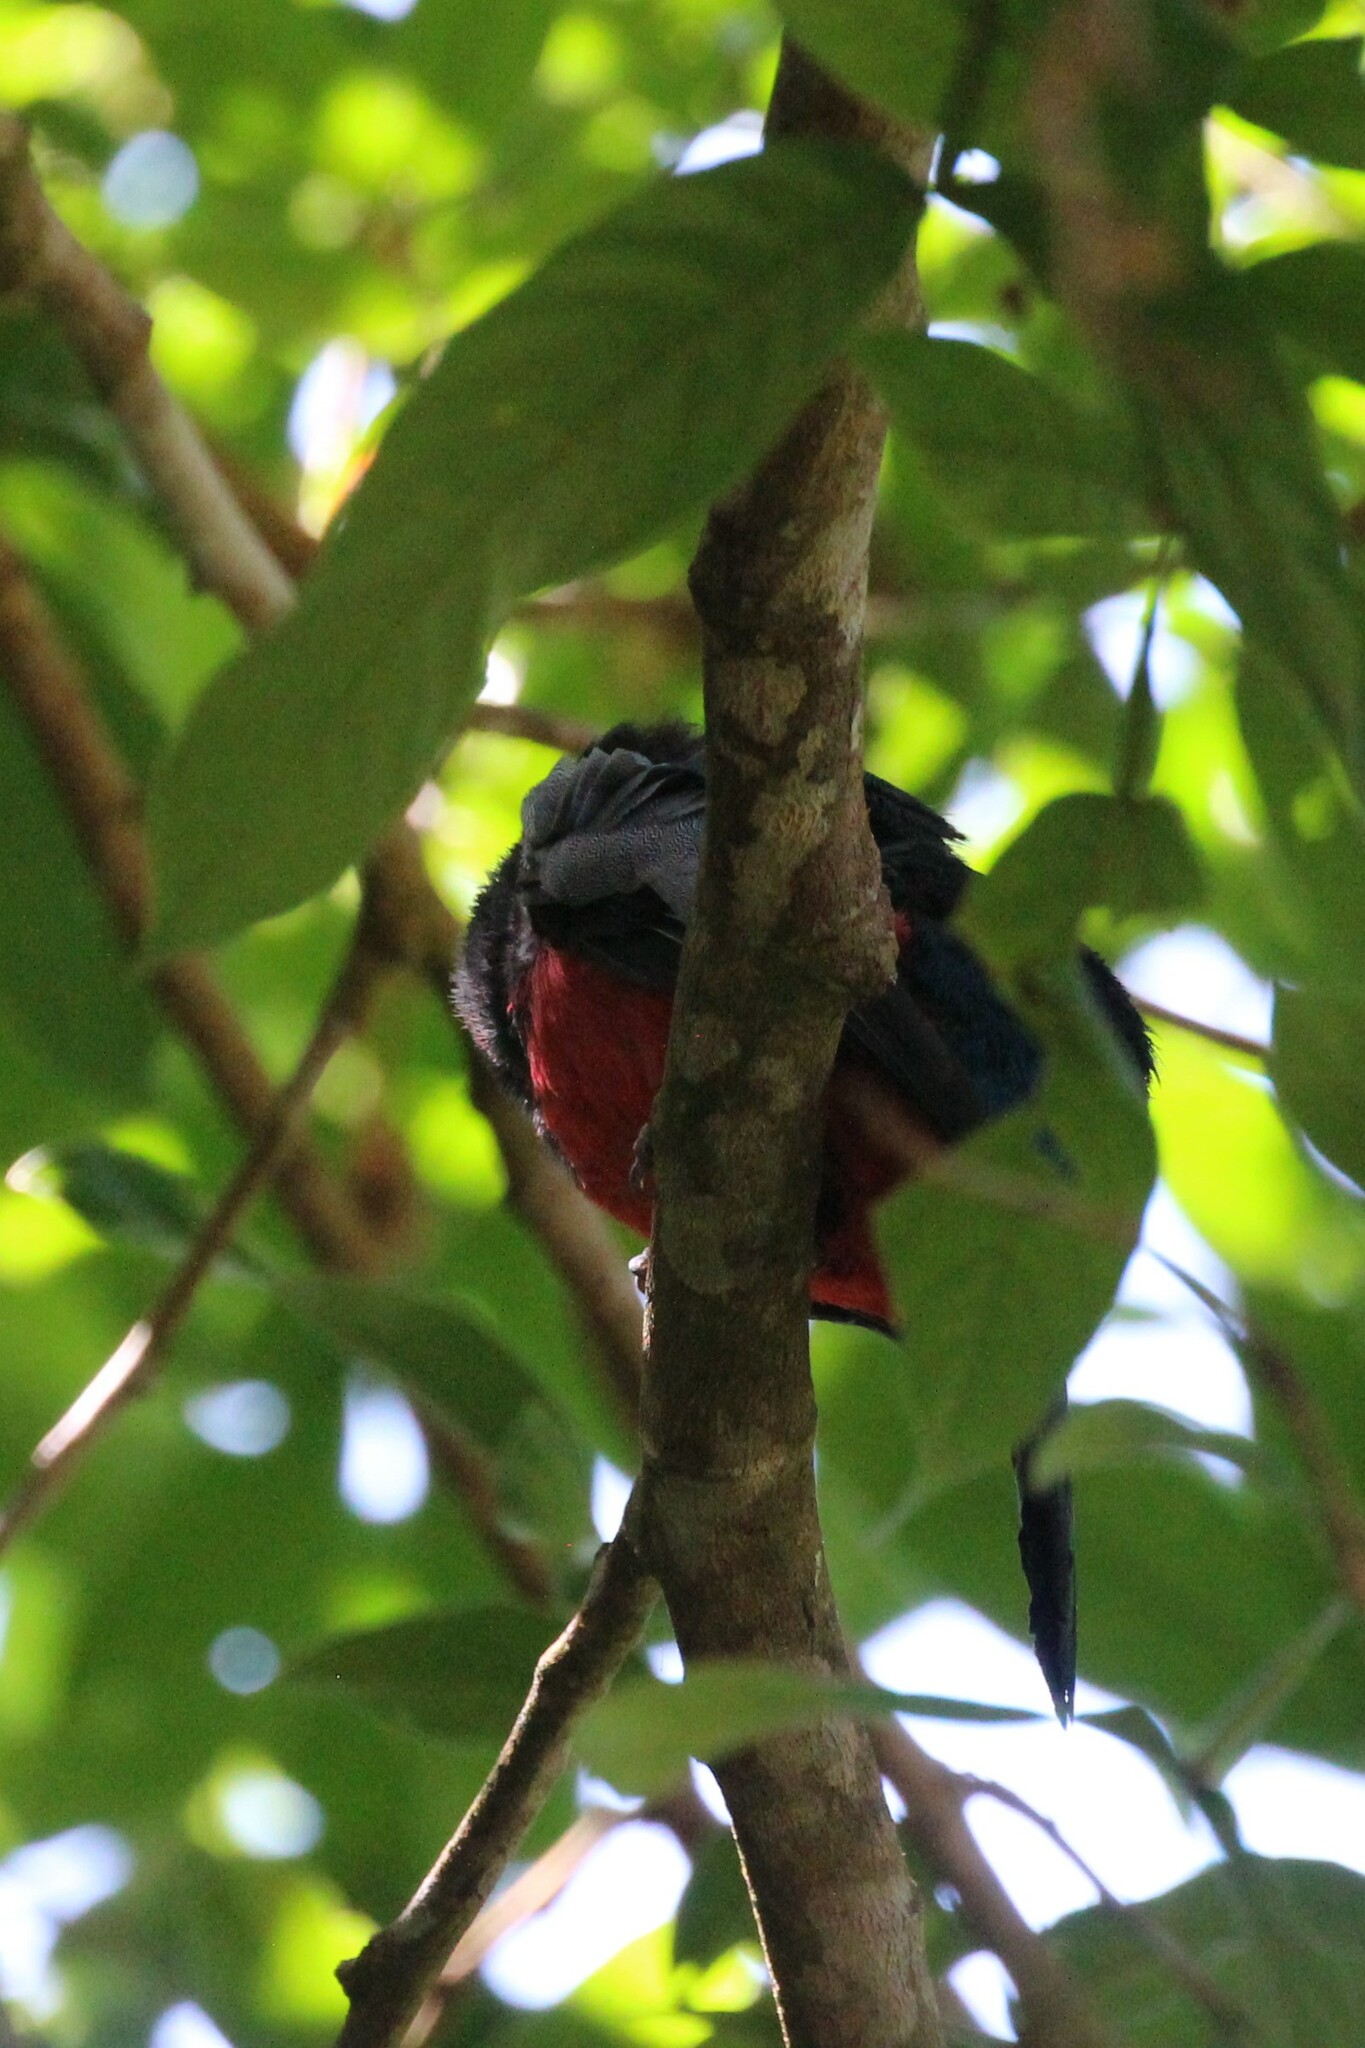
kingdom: Animalia
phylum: Chordata
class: Aves
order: Trogoniformes
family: Trogonidae
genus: Trogon
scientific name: Trogon massena
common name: Slaty-tailed trogon
